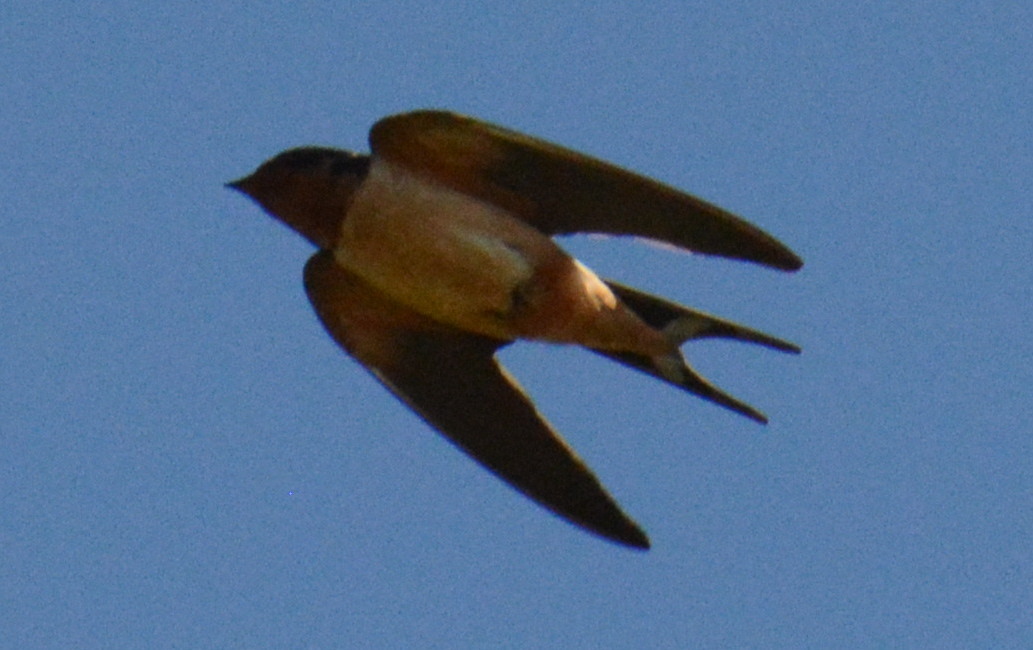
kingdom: Animalia
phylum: Chordata
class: Aves
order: Passeriformes
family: Hirundinidae
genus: Hirundo
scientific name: Hirundo rustica
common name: Barn swallow
